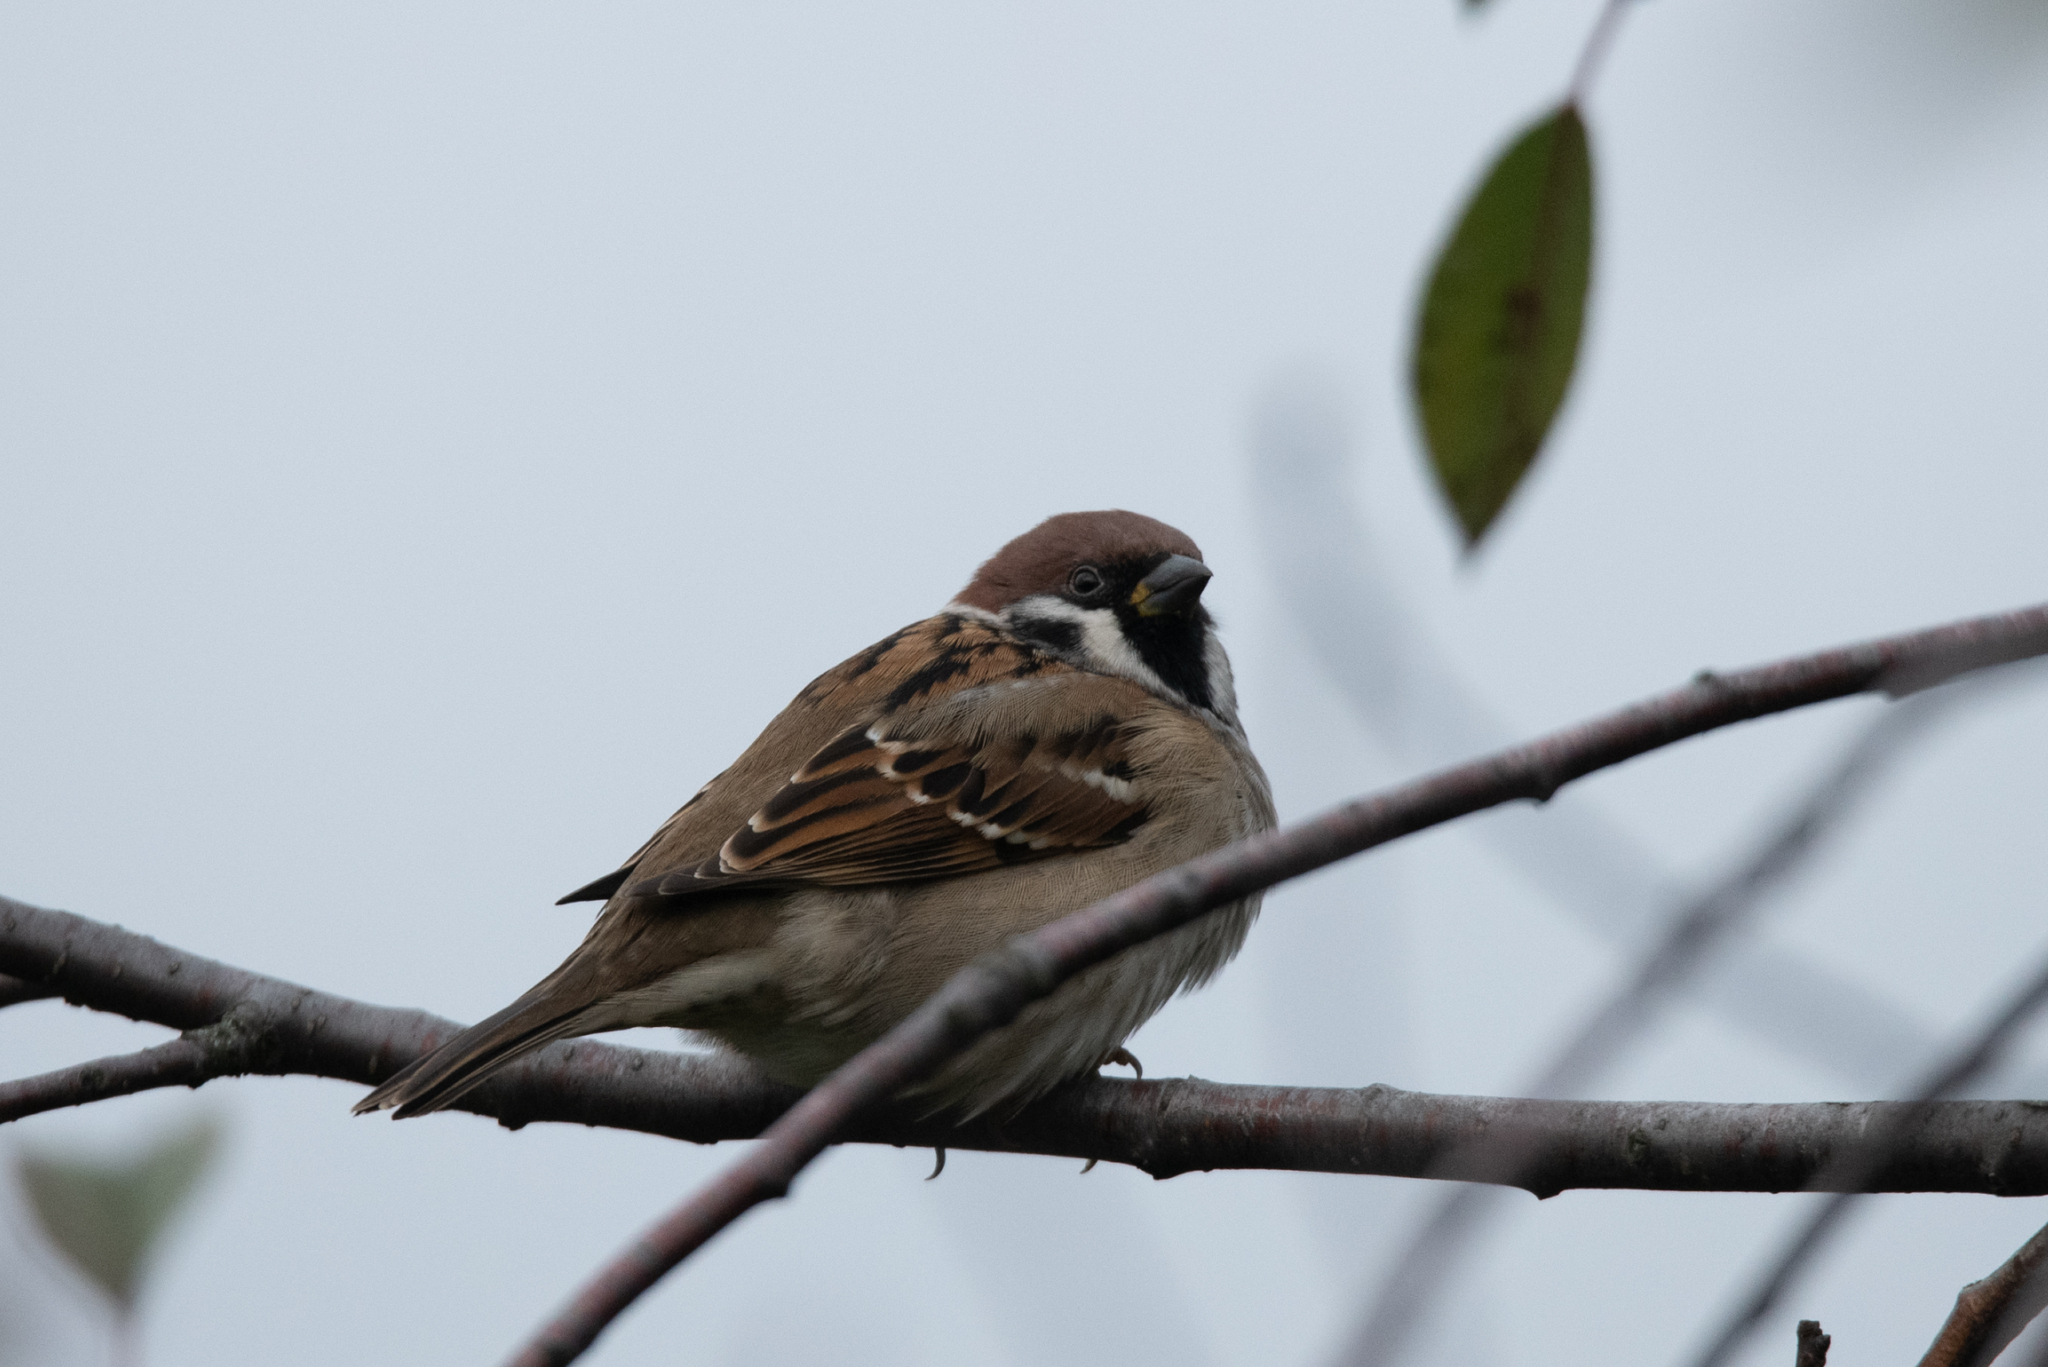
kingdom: Animalia
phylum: Chordata
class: Aves
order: Passeriformes
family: Passeridae
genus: Passer
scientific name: Passer montanus
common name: Eurasian tree sparrow
